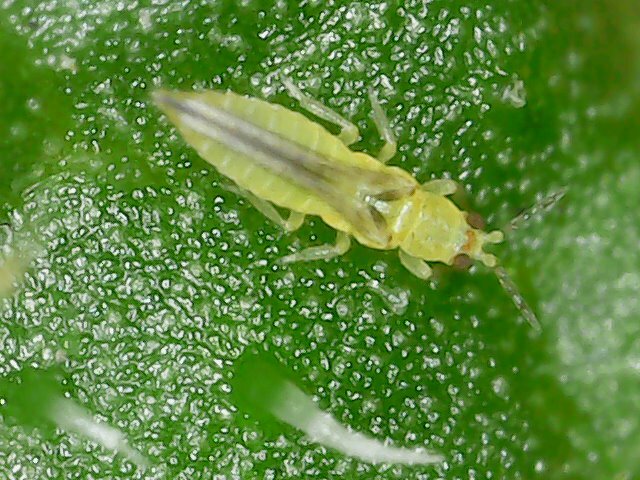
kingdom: Animalia
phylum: Arthropoda
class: Insecta
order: Thysanoptera
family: Thripidae
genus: Scirtothrips
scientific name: Scirtothrips dorsalis
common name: Thrips
